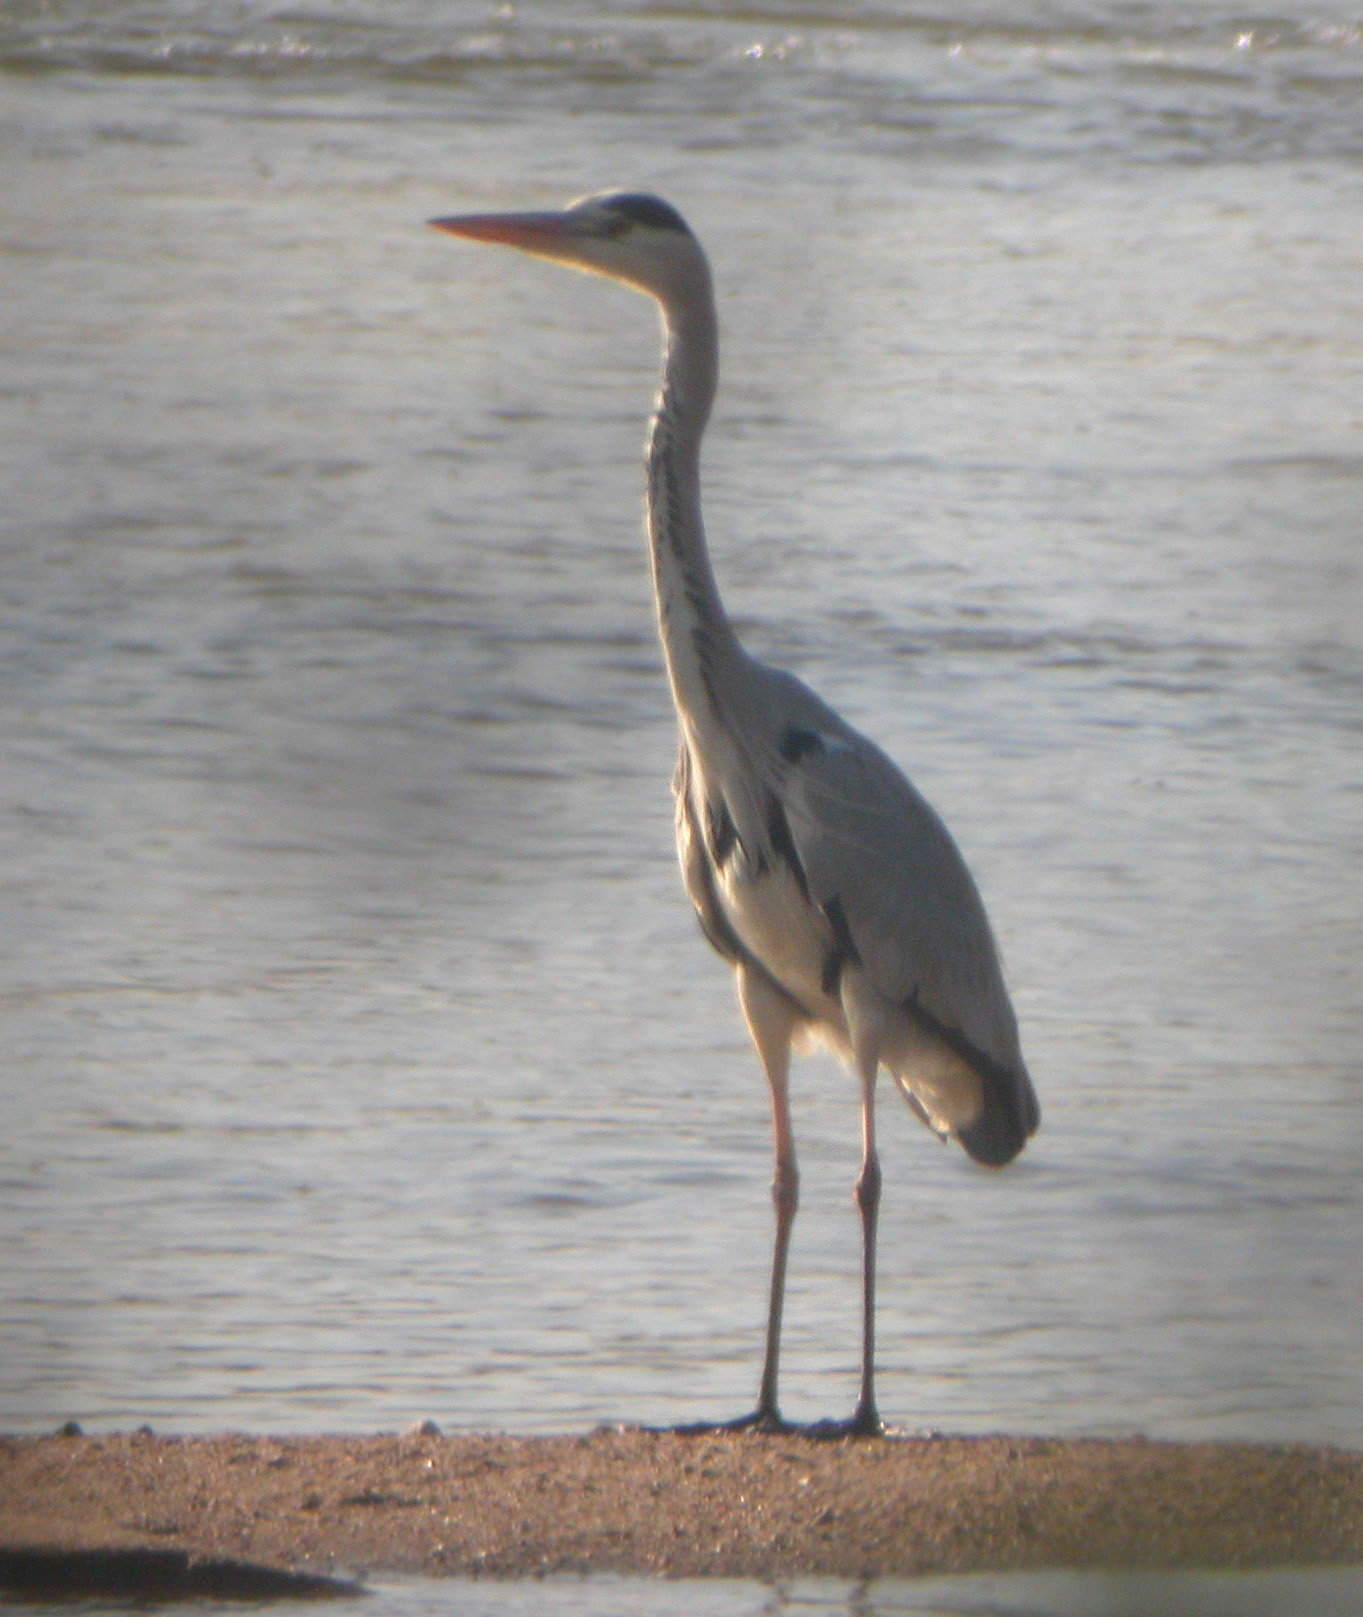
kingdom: Animalia
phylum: Chordata
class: Aves
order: Pelecaniformes
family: Ardeidae
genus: Ardea
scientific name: Ardea cinerea
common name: Grey heron
